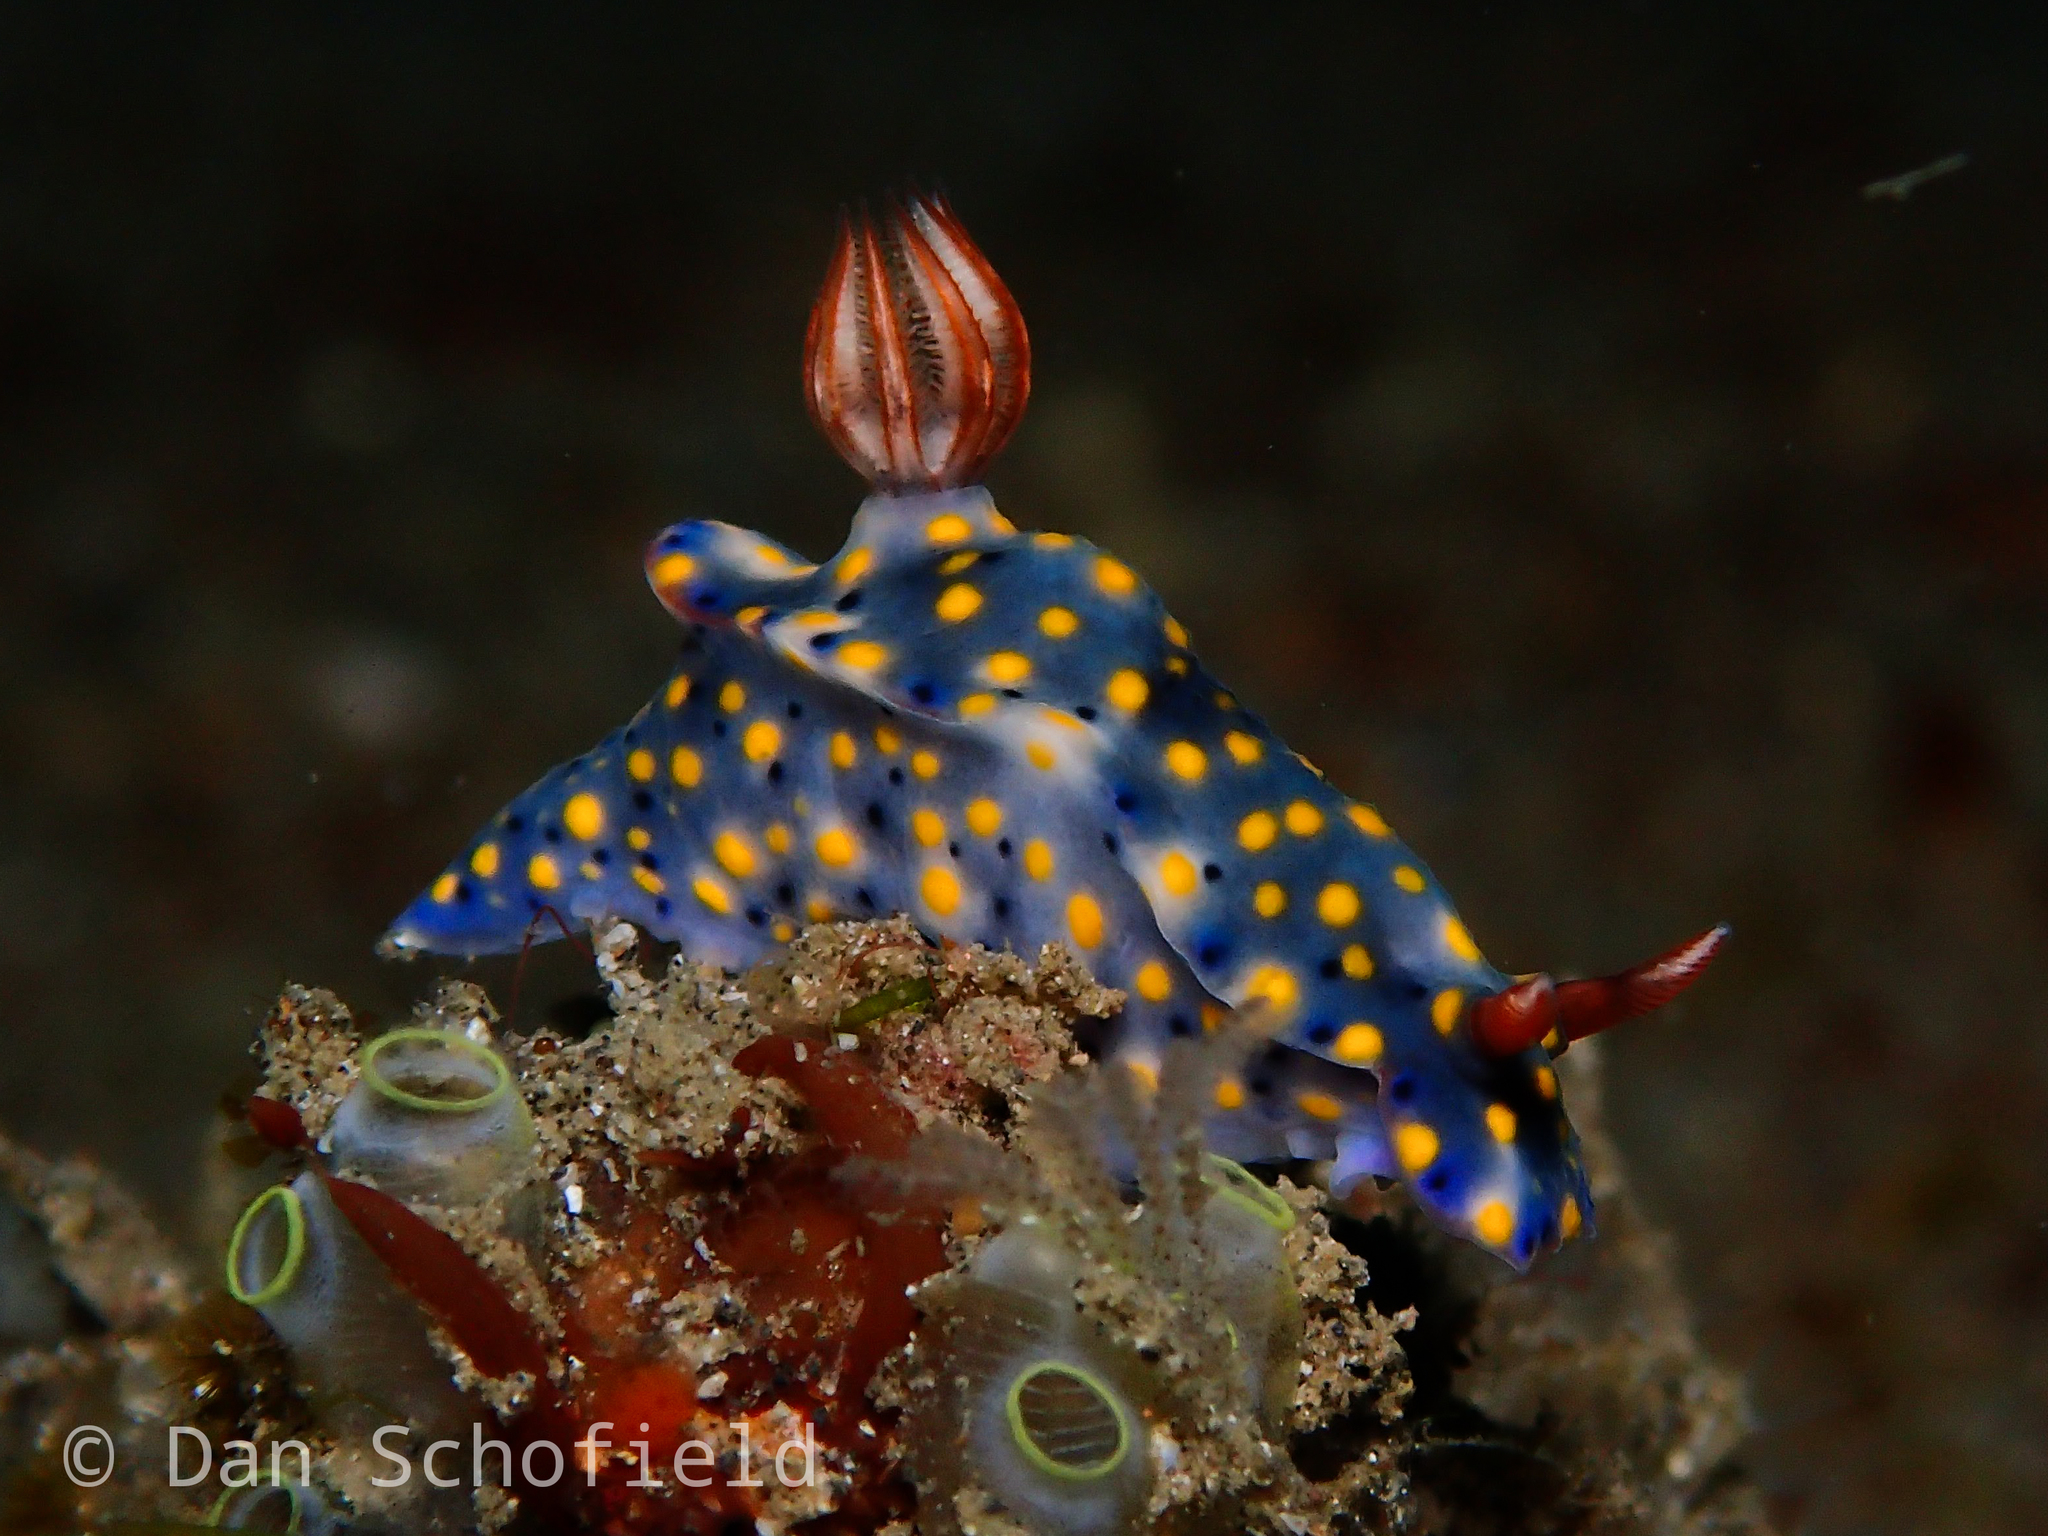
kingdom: Animalia
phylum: Mollusca
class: Gastropoda
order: Nudibranchia
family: Chromodorididae
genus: Hypselodoris
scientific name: Hypselodoris roo
